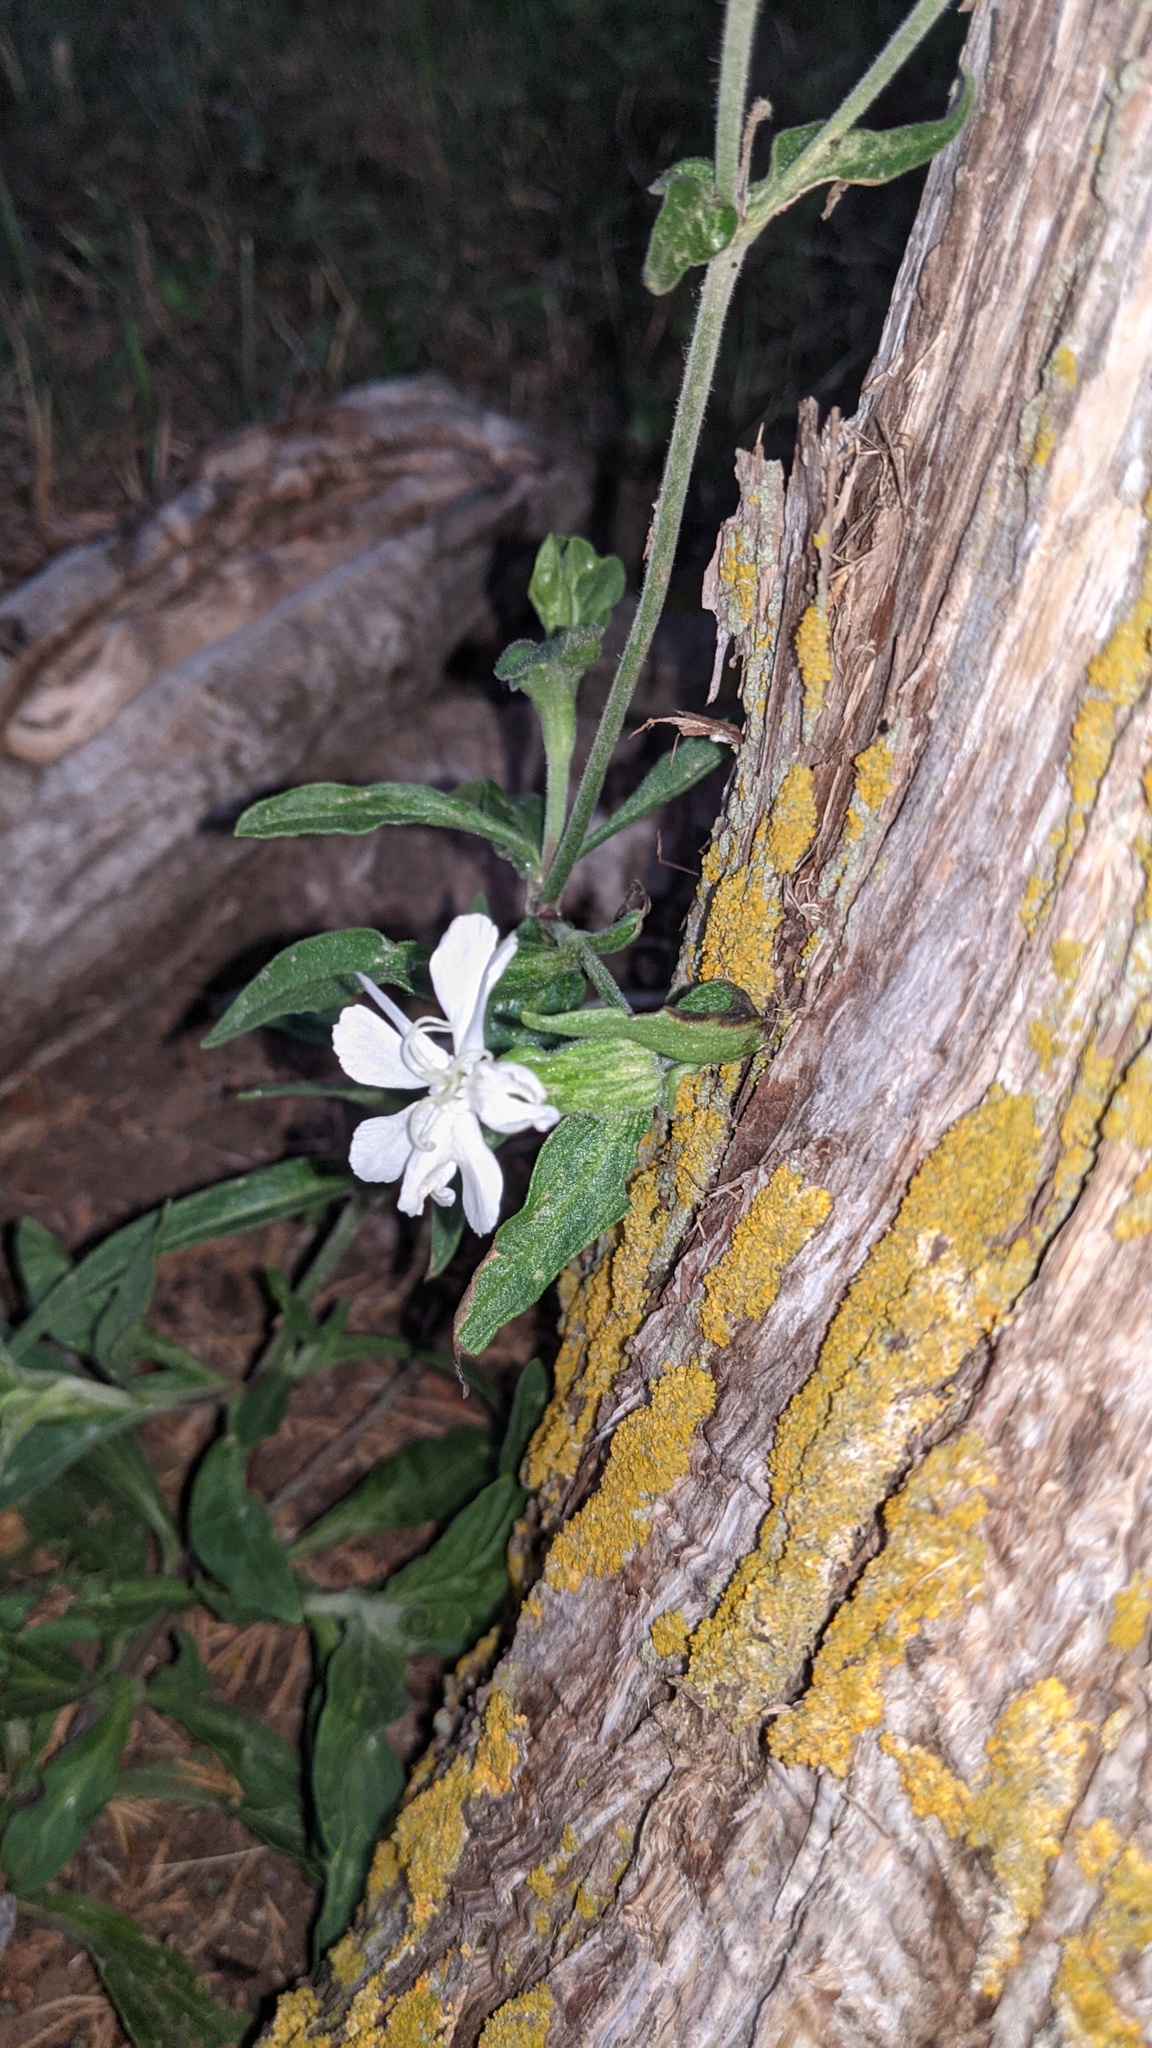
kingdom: Plantae
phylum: Tracheophyta
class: Magnoliopsida
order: Caryophyllales
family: Caryophyllaceae
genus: Silene
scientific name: Silene latifolia
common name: White campion
